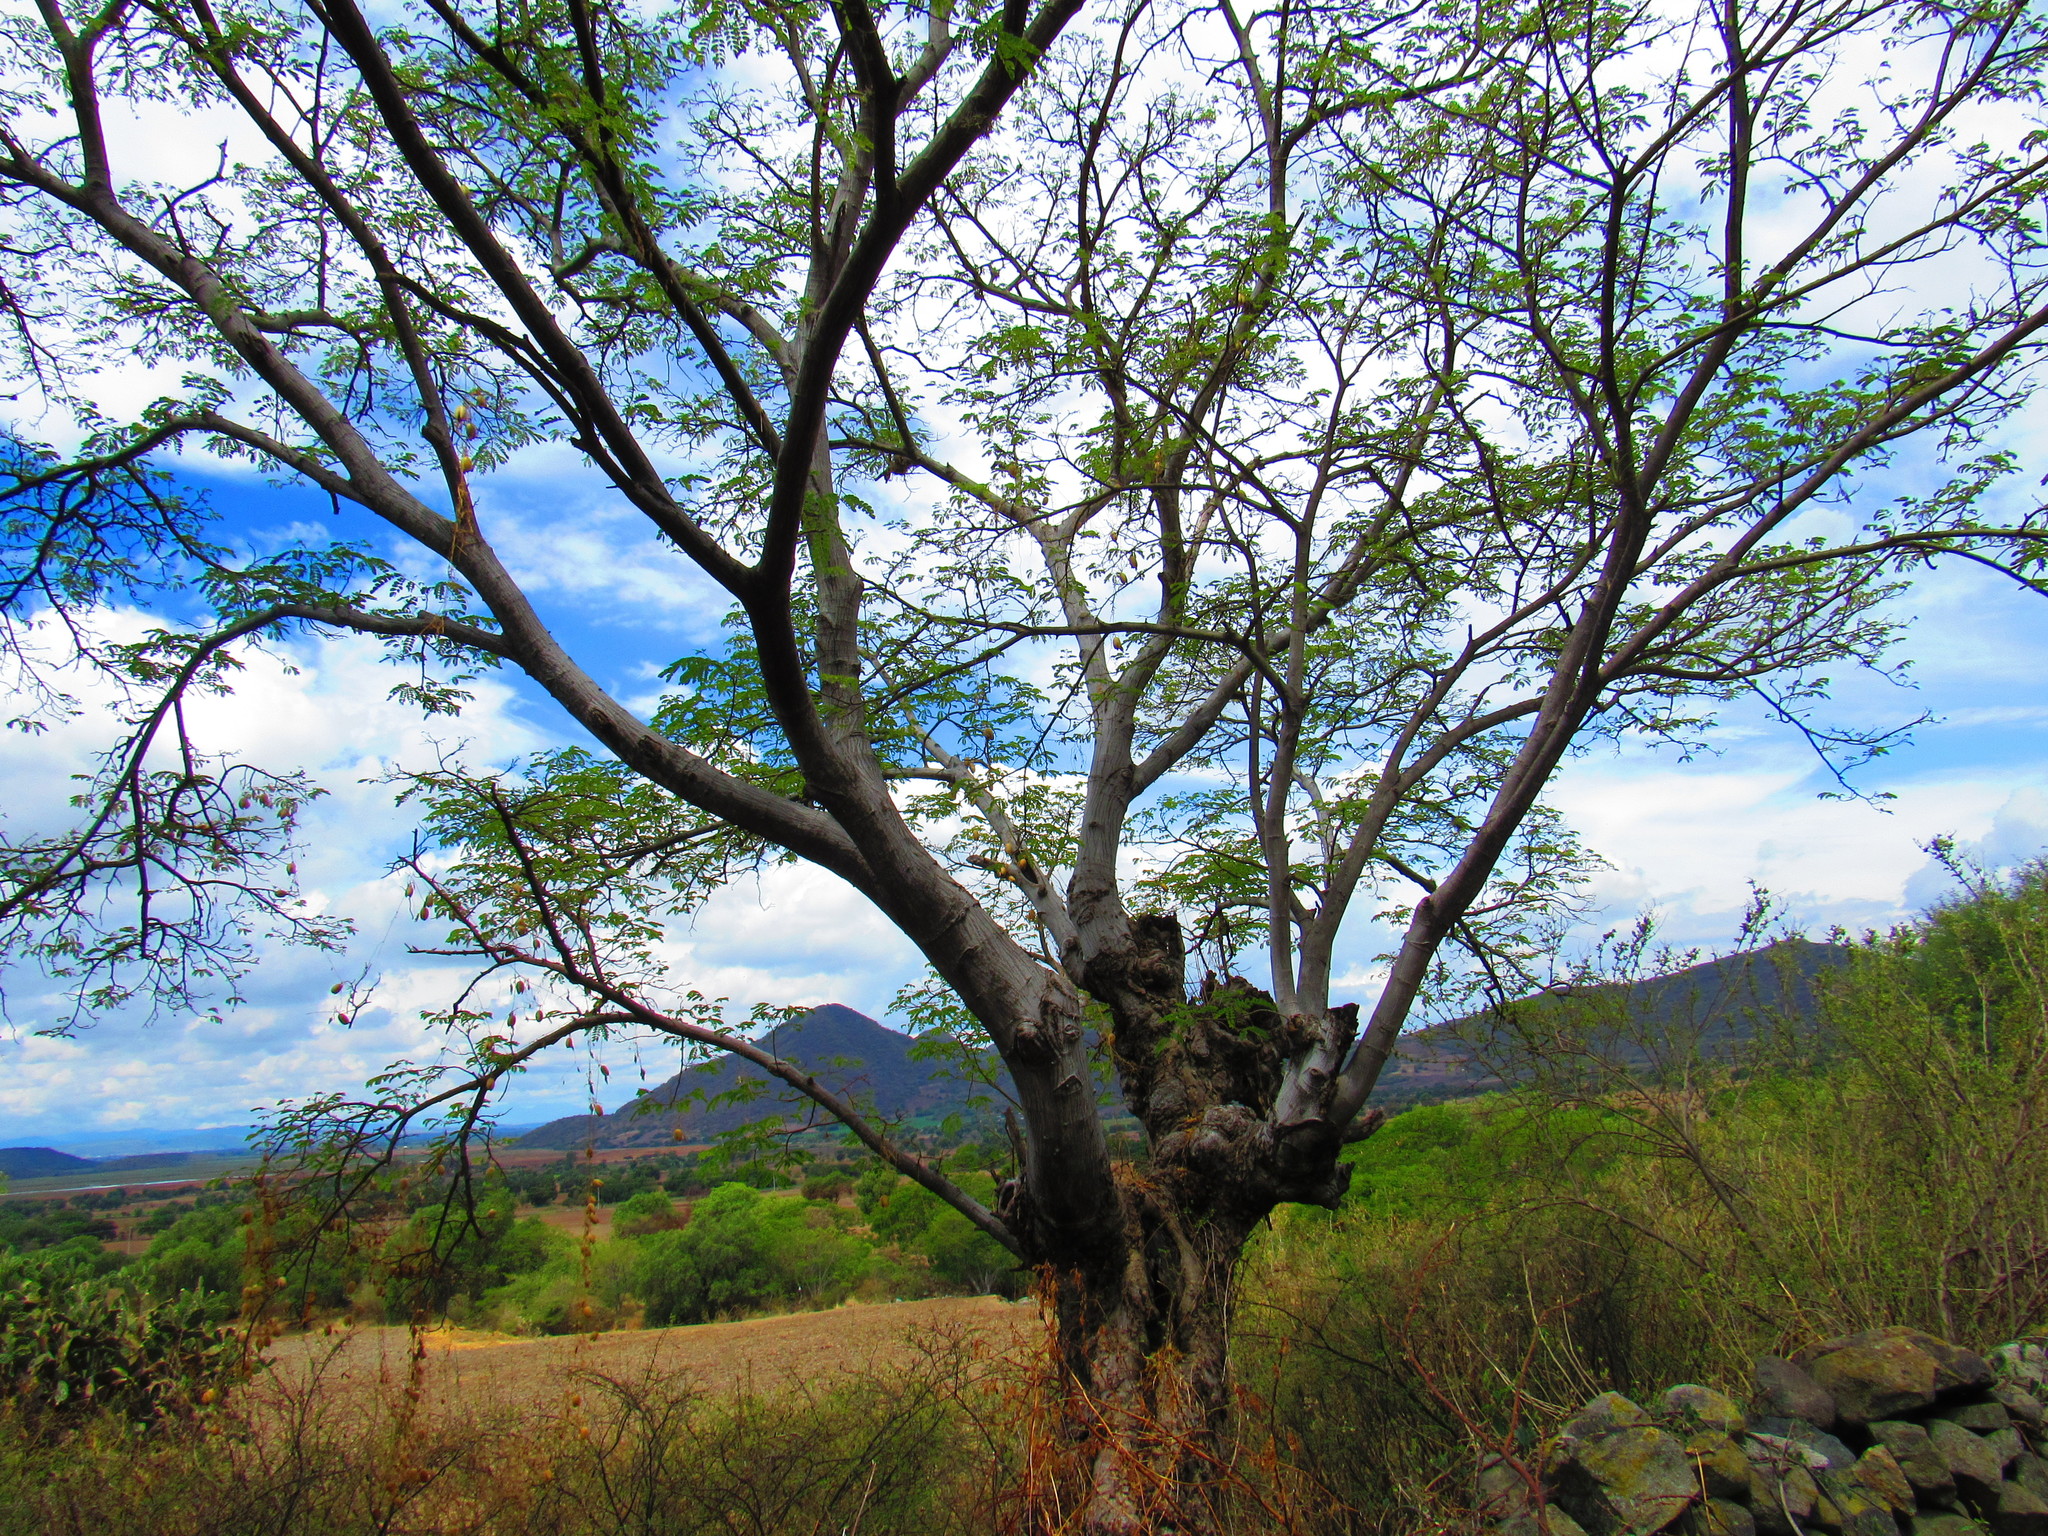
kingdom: Plantae
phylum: Tracheophyta
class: Magnoliopsida
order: Fabales
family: Fabaceae
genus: Albizia
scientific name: Albizia occidentalis
